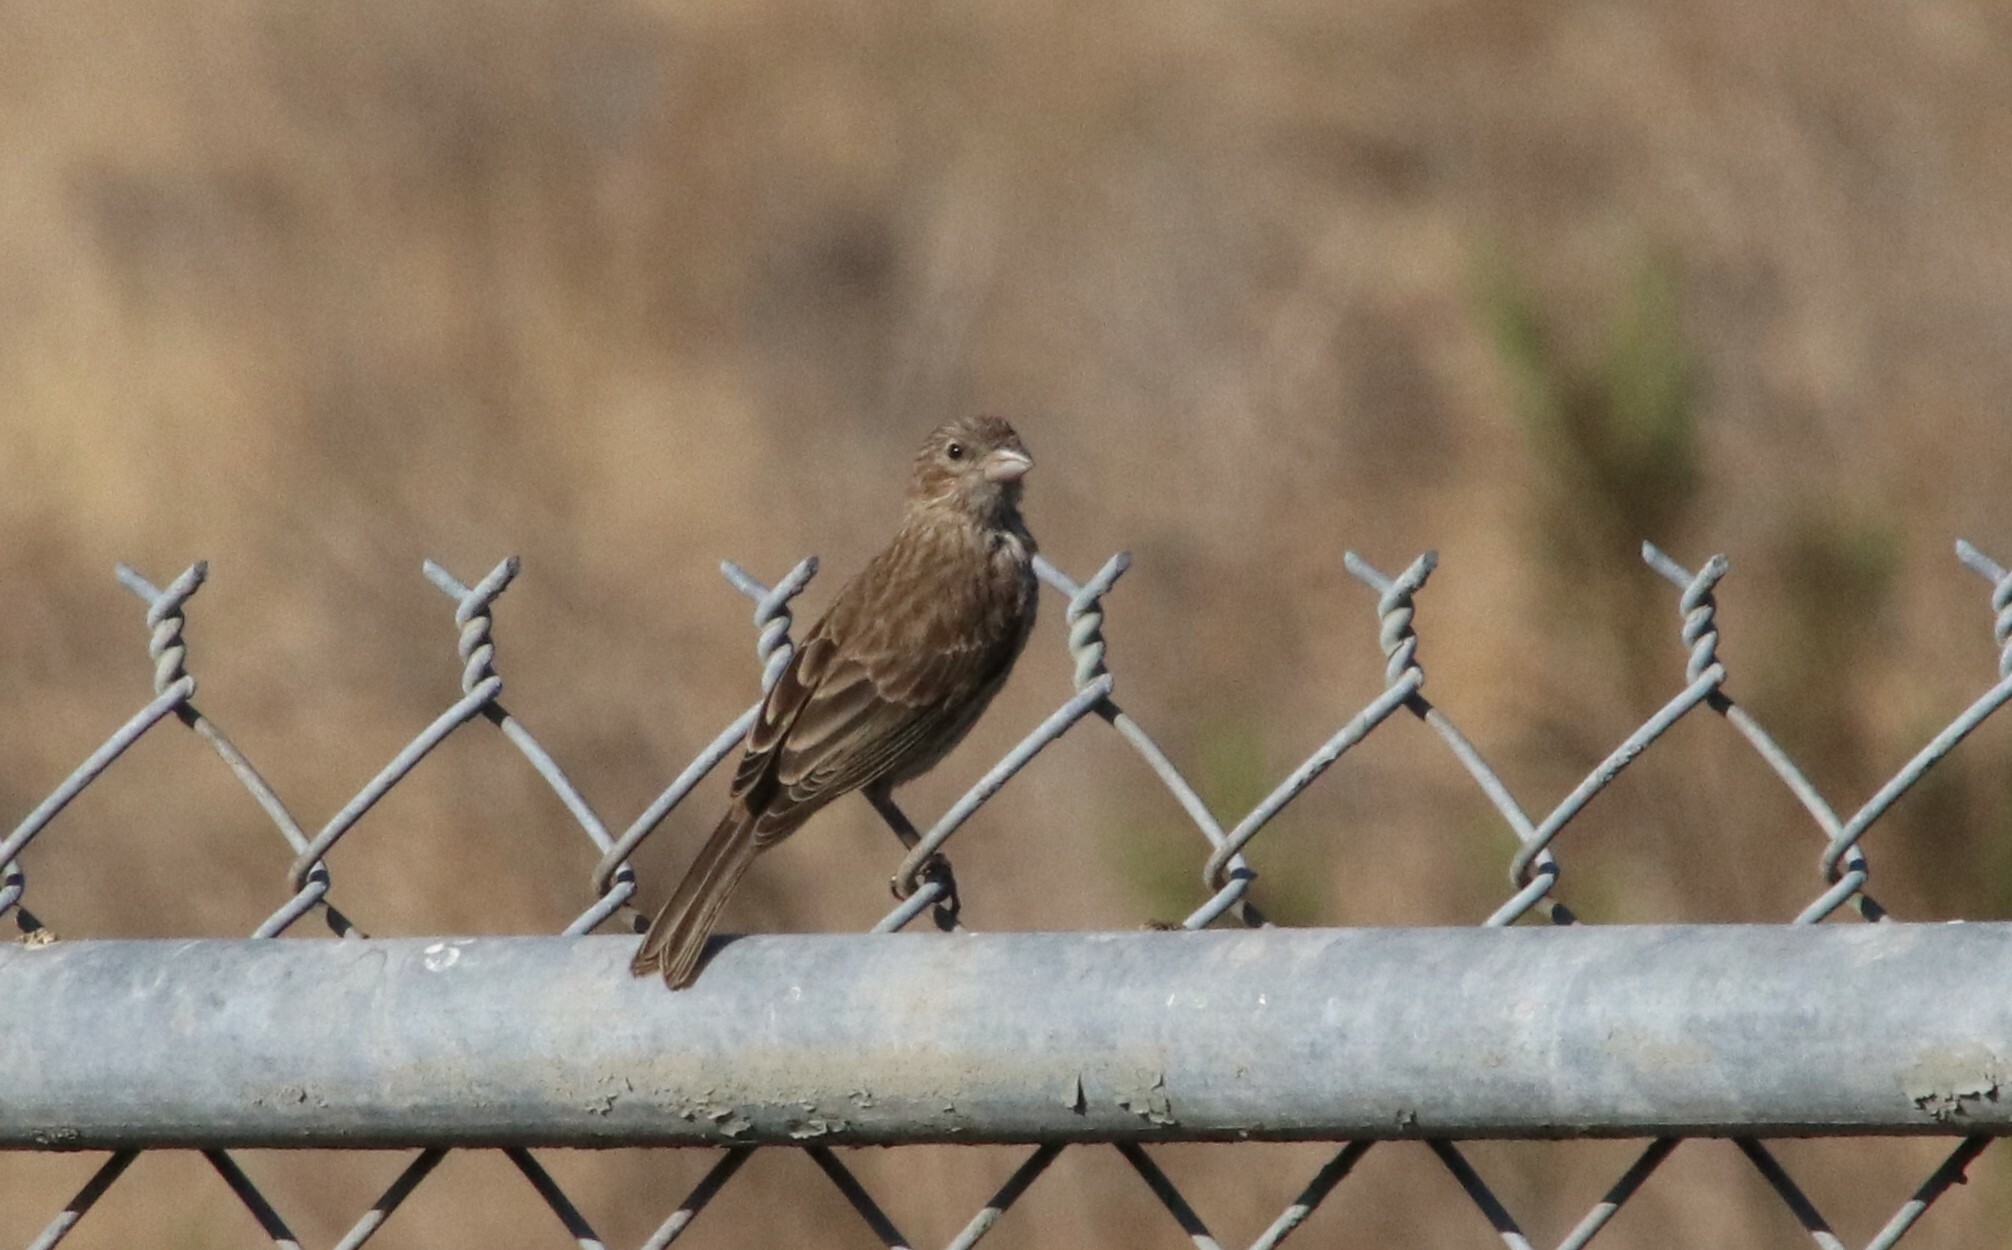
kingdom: Animalia
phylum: Chordata
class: Aves
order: Passeriformes
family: Fringillidae
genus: Haemorhous
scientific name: Haemorhous mexicanus
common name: House finch
